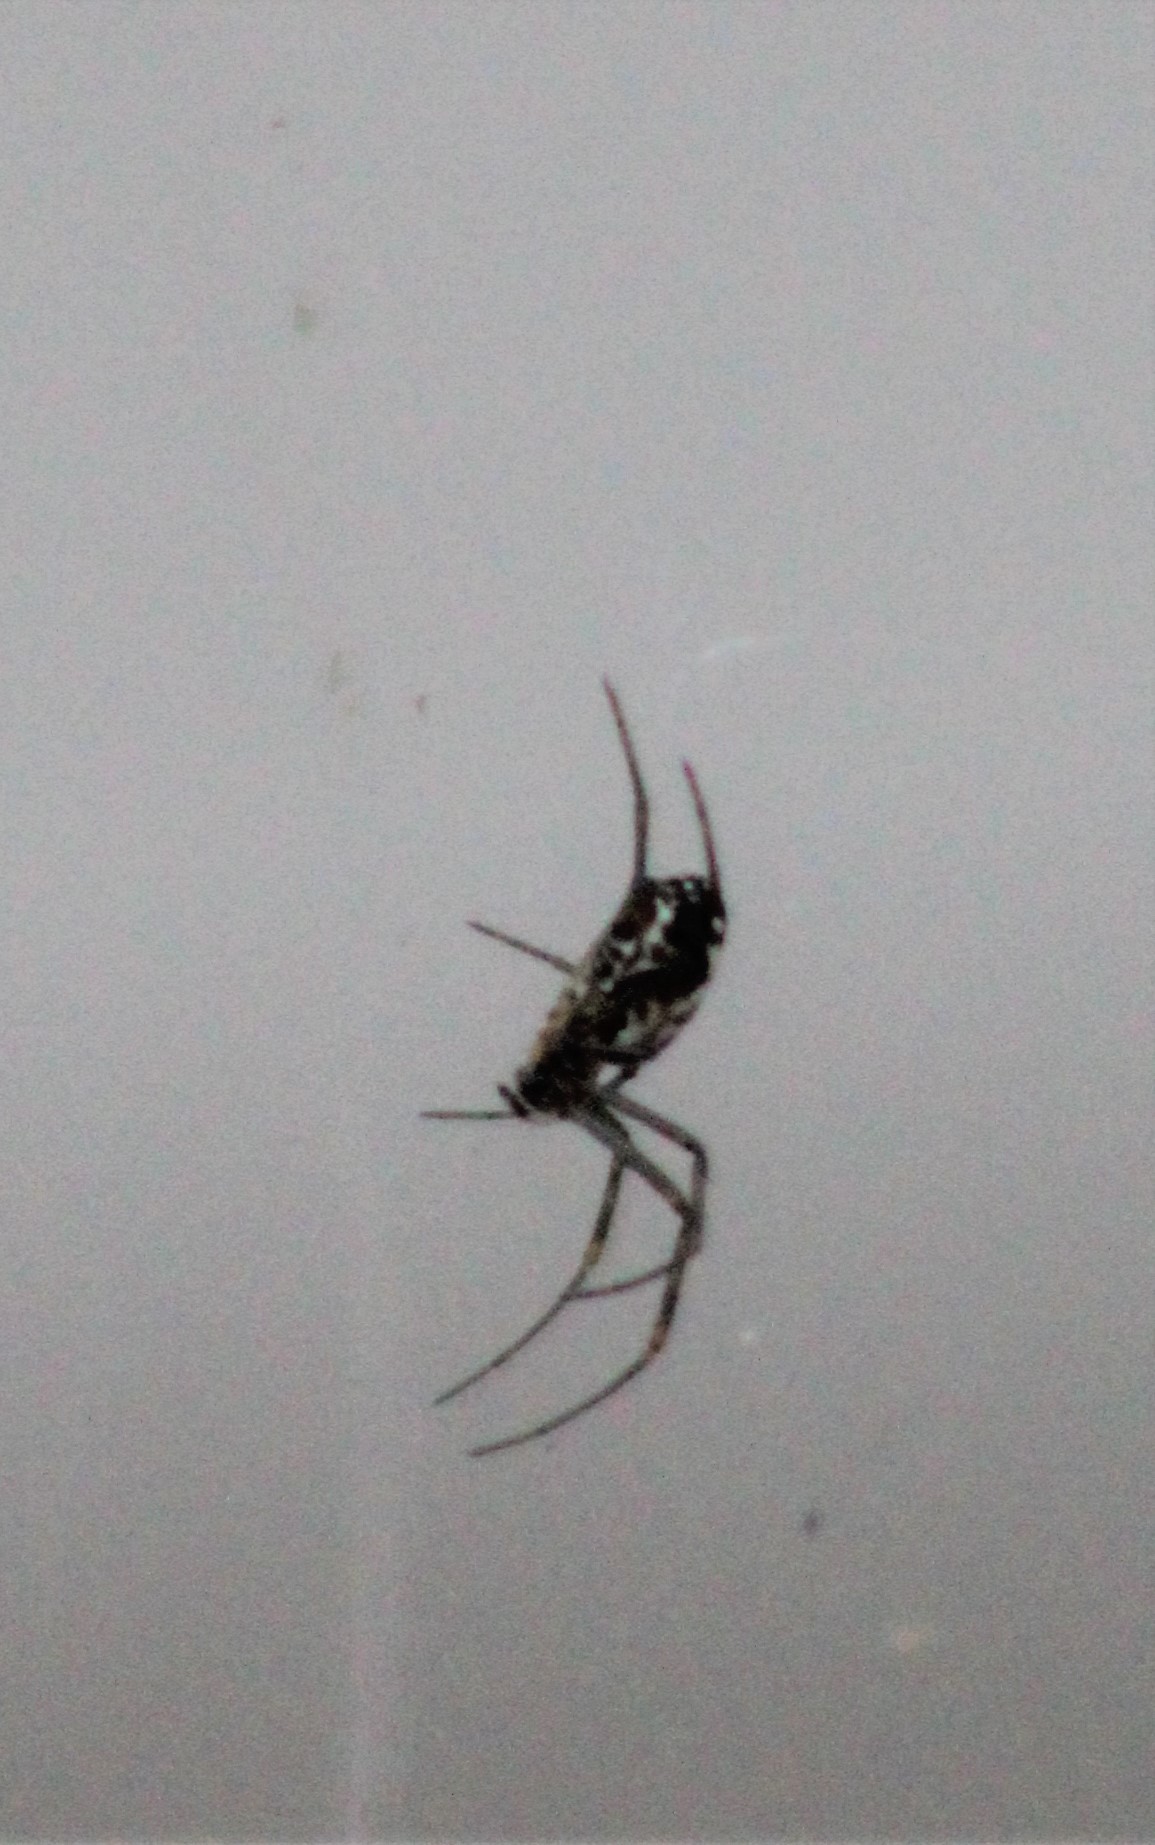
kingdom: Animalia
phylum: Arthropoda
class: Arachnida
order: Araneae
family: Araneidae
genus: Trichonephila
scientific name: Trichonephila plumipes
